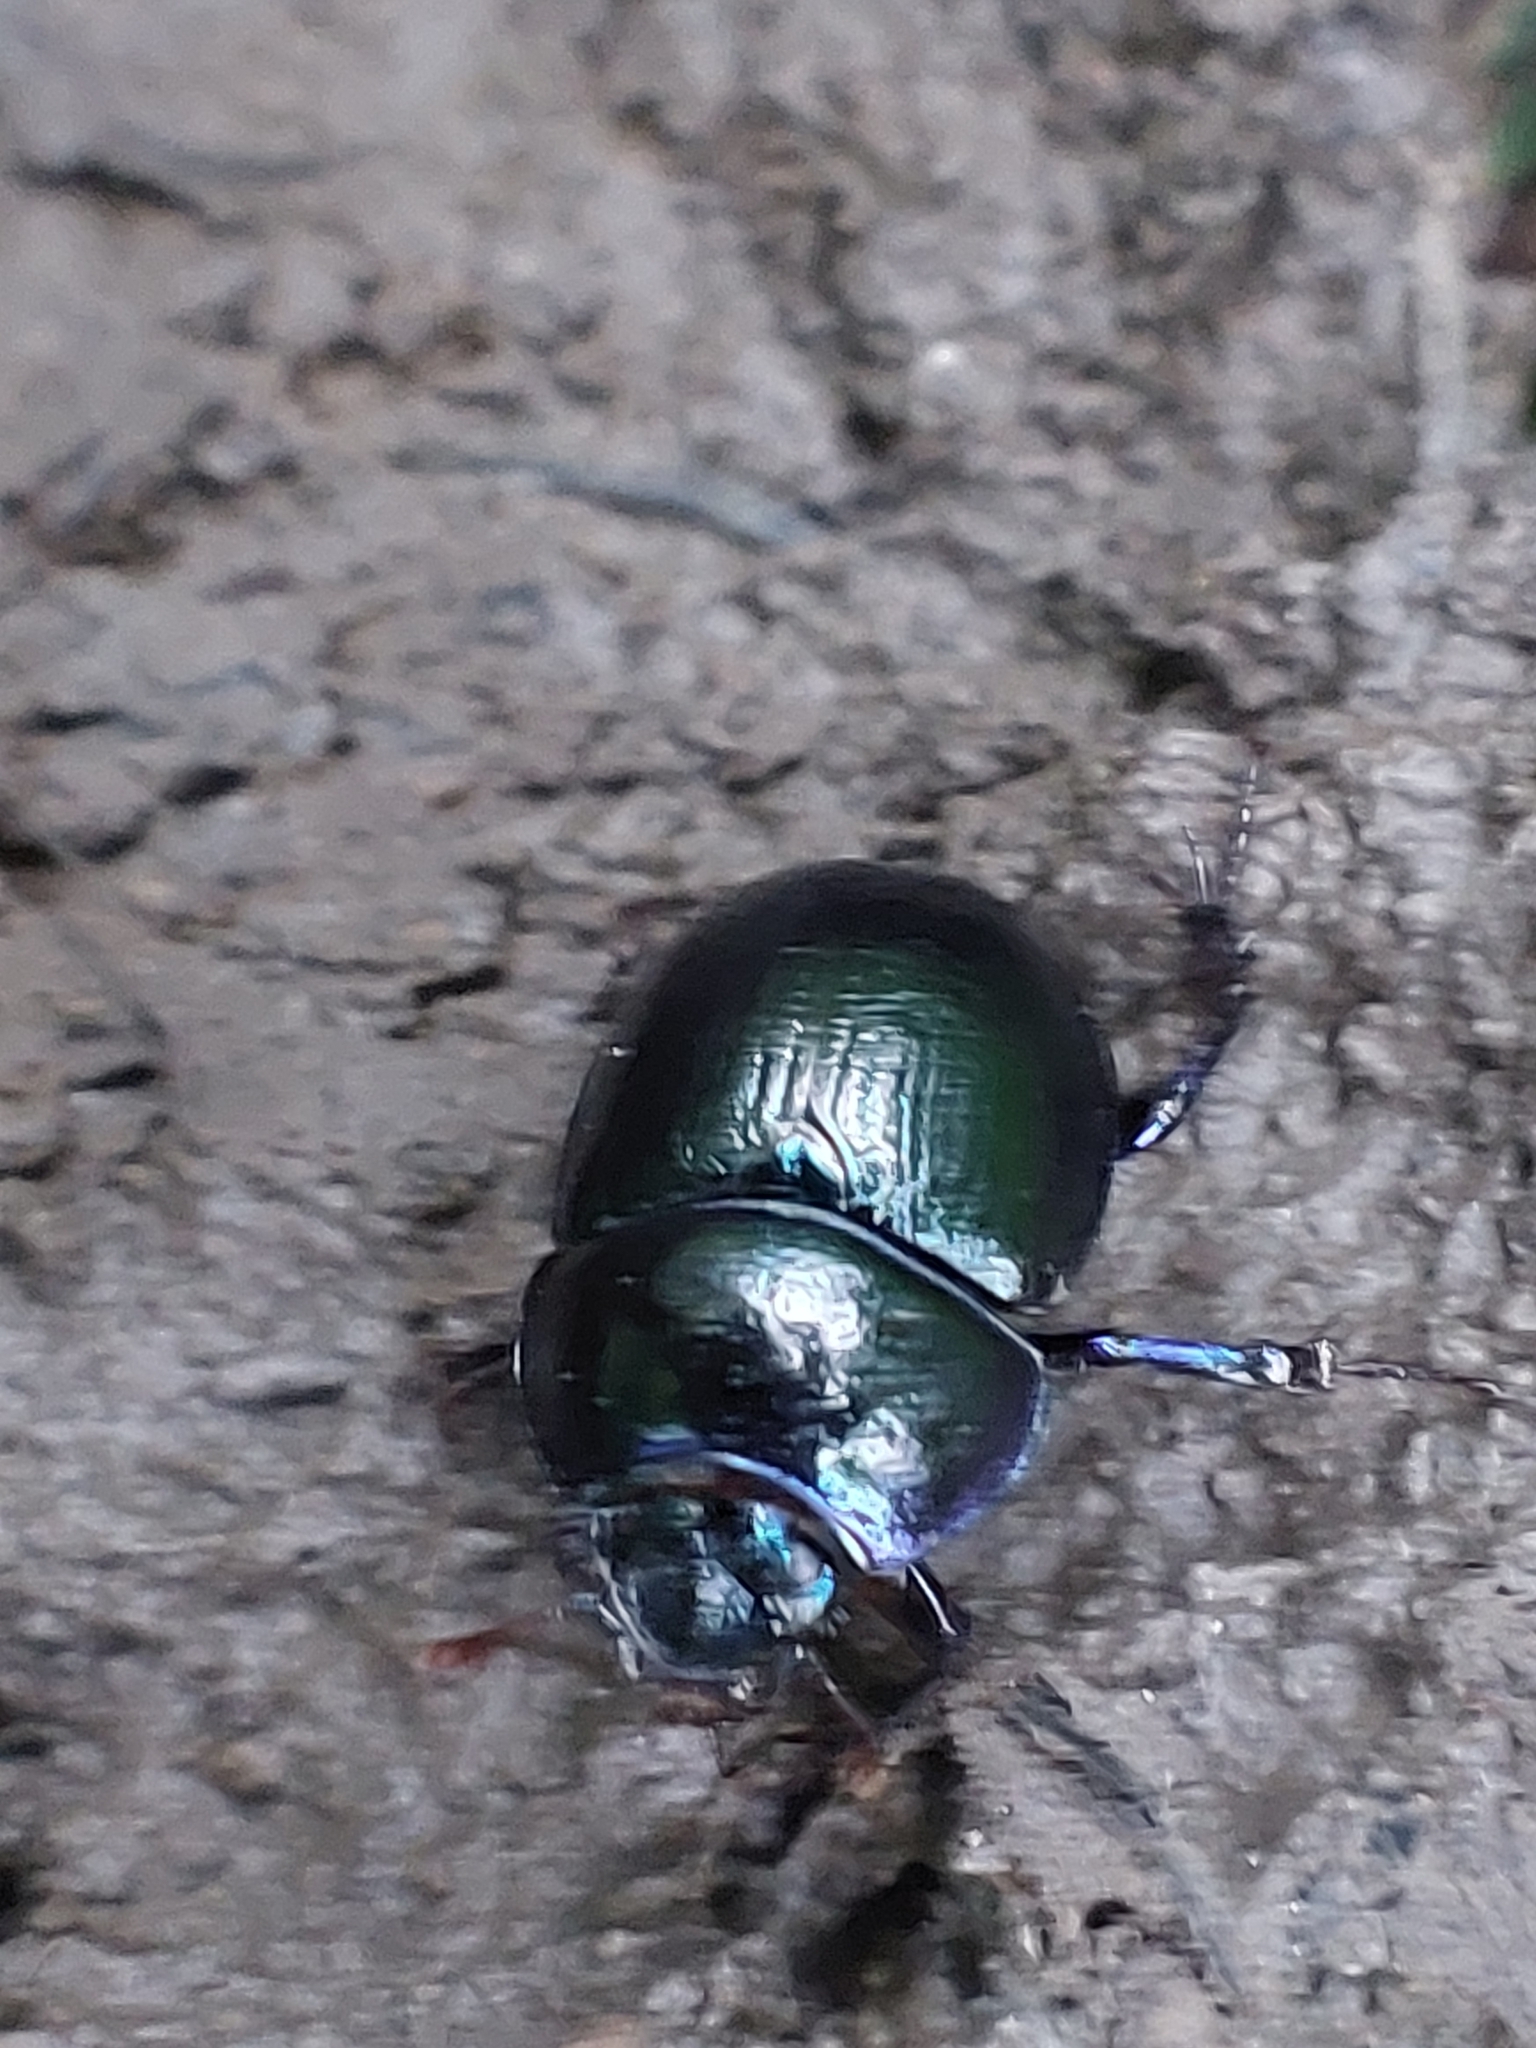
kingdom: Animalia
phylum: Arthropoda
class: Insecta
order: Coleoptera
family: Geotrupidae
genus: Anoplotrupes
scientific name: Anoplotrupes stercorosus
